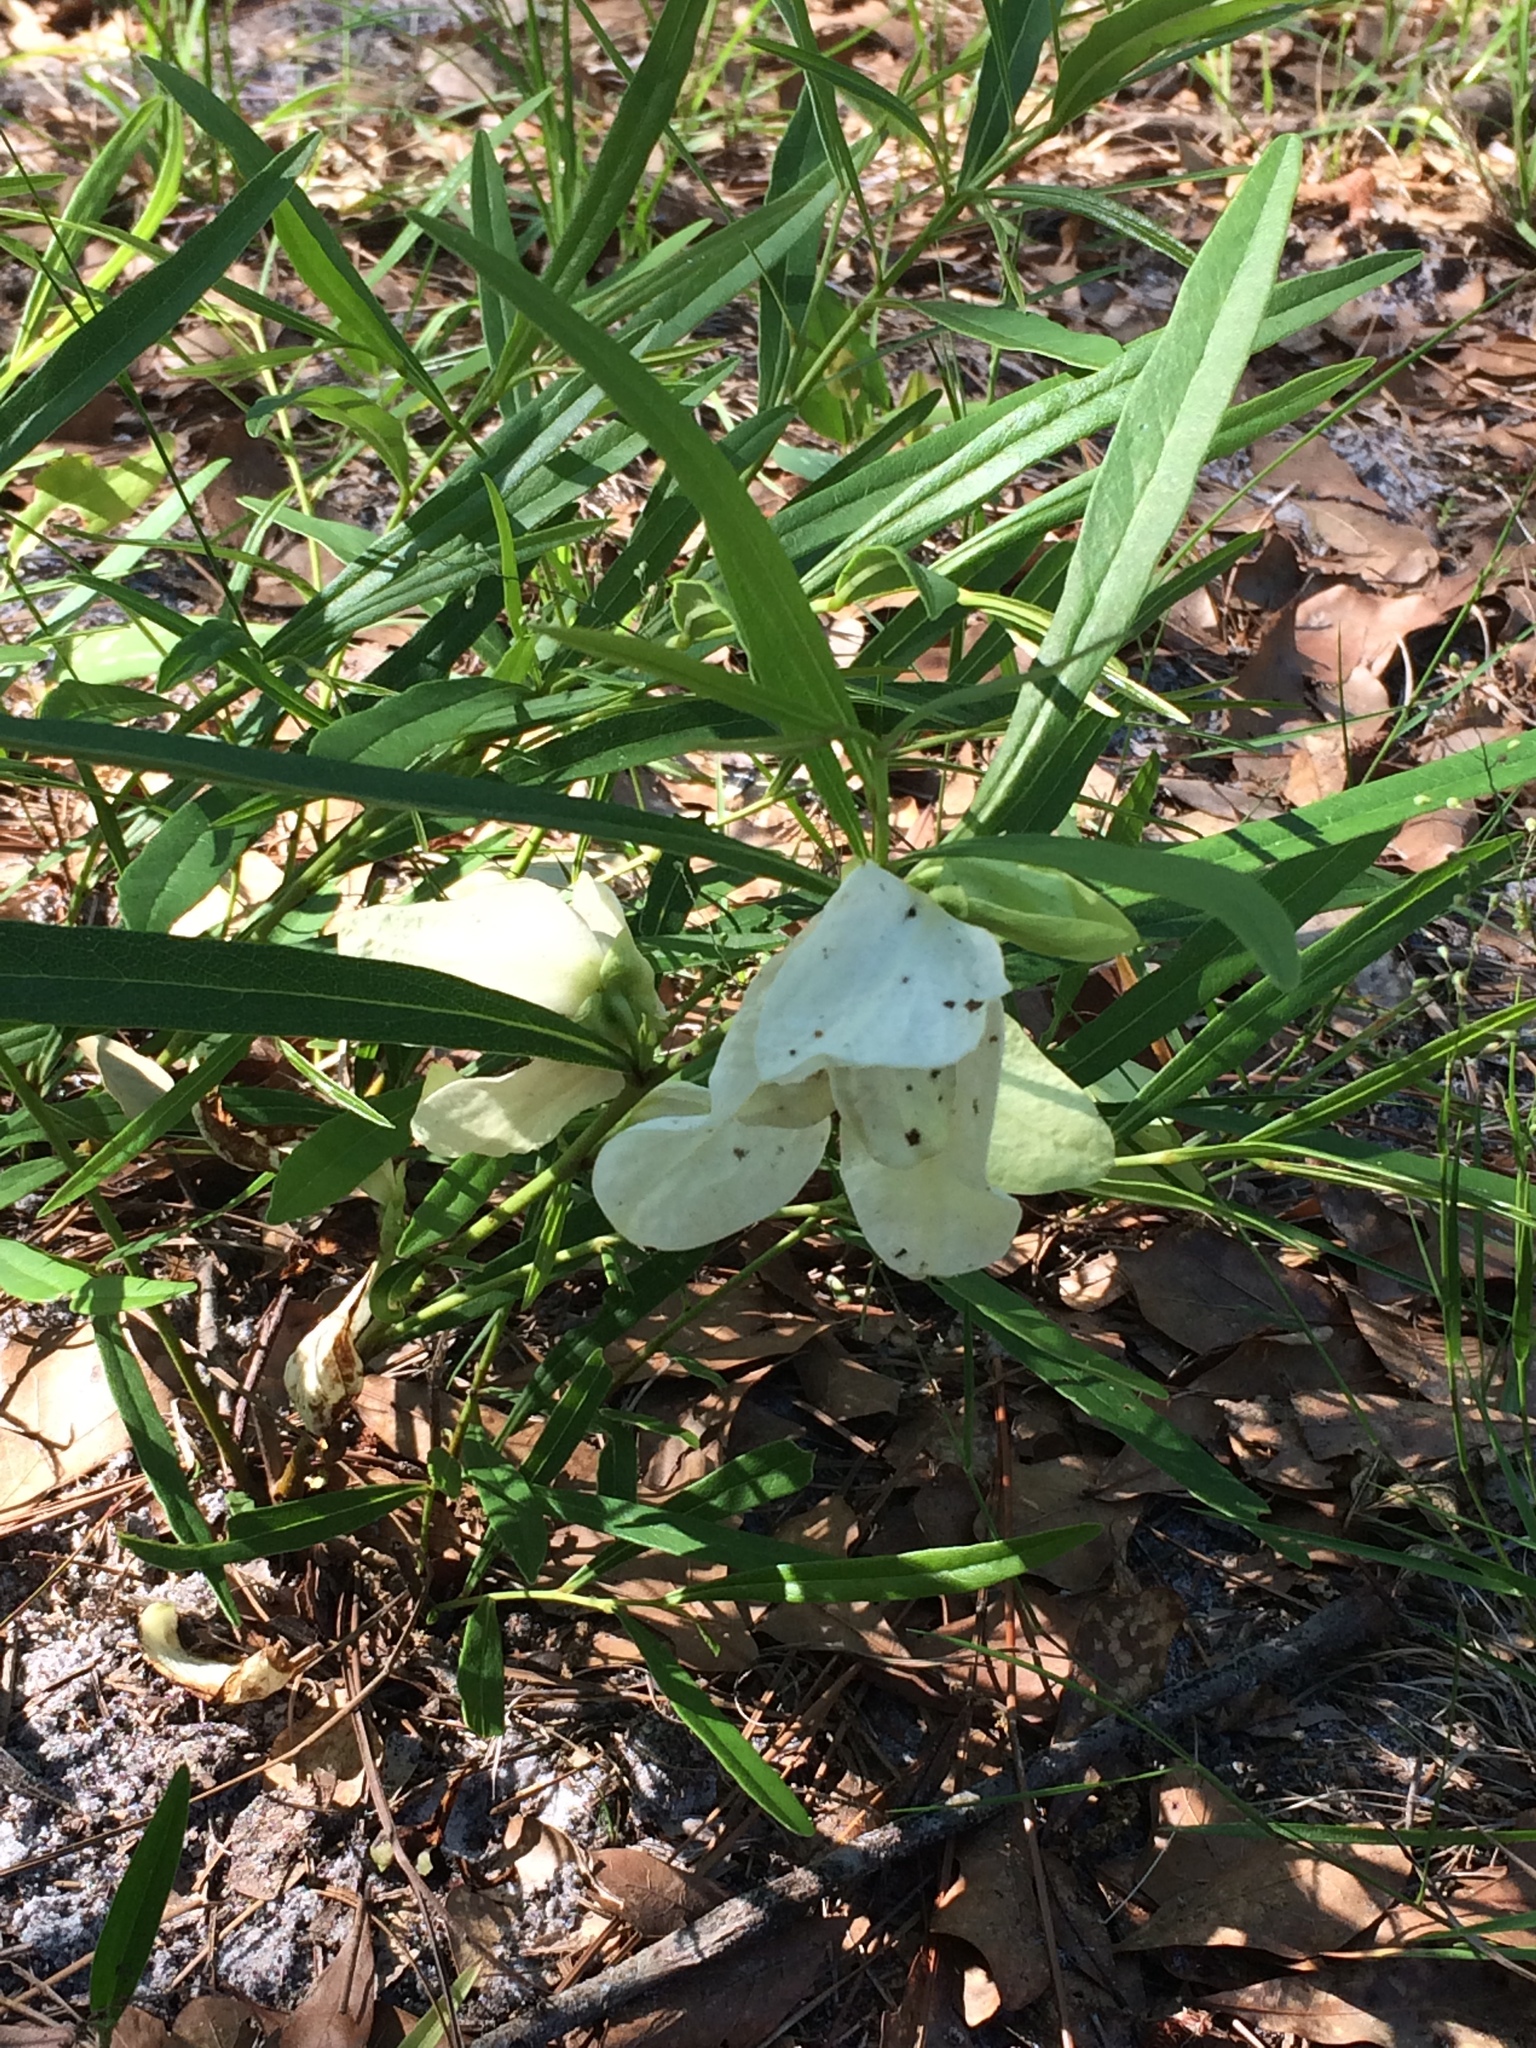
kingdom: Plantae
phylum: Tracheophyta
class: Magnoliopsida
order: Magnoliales
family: Annonaceae
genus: Asimina
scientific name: Asimina longifolia
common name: Polecatbush
